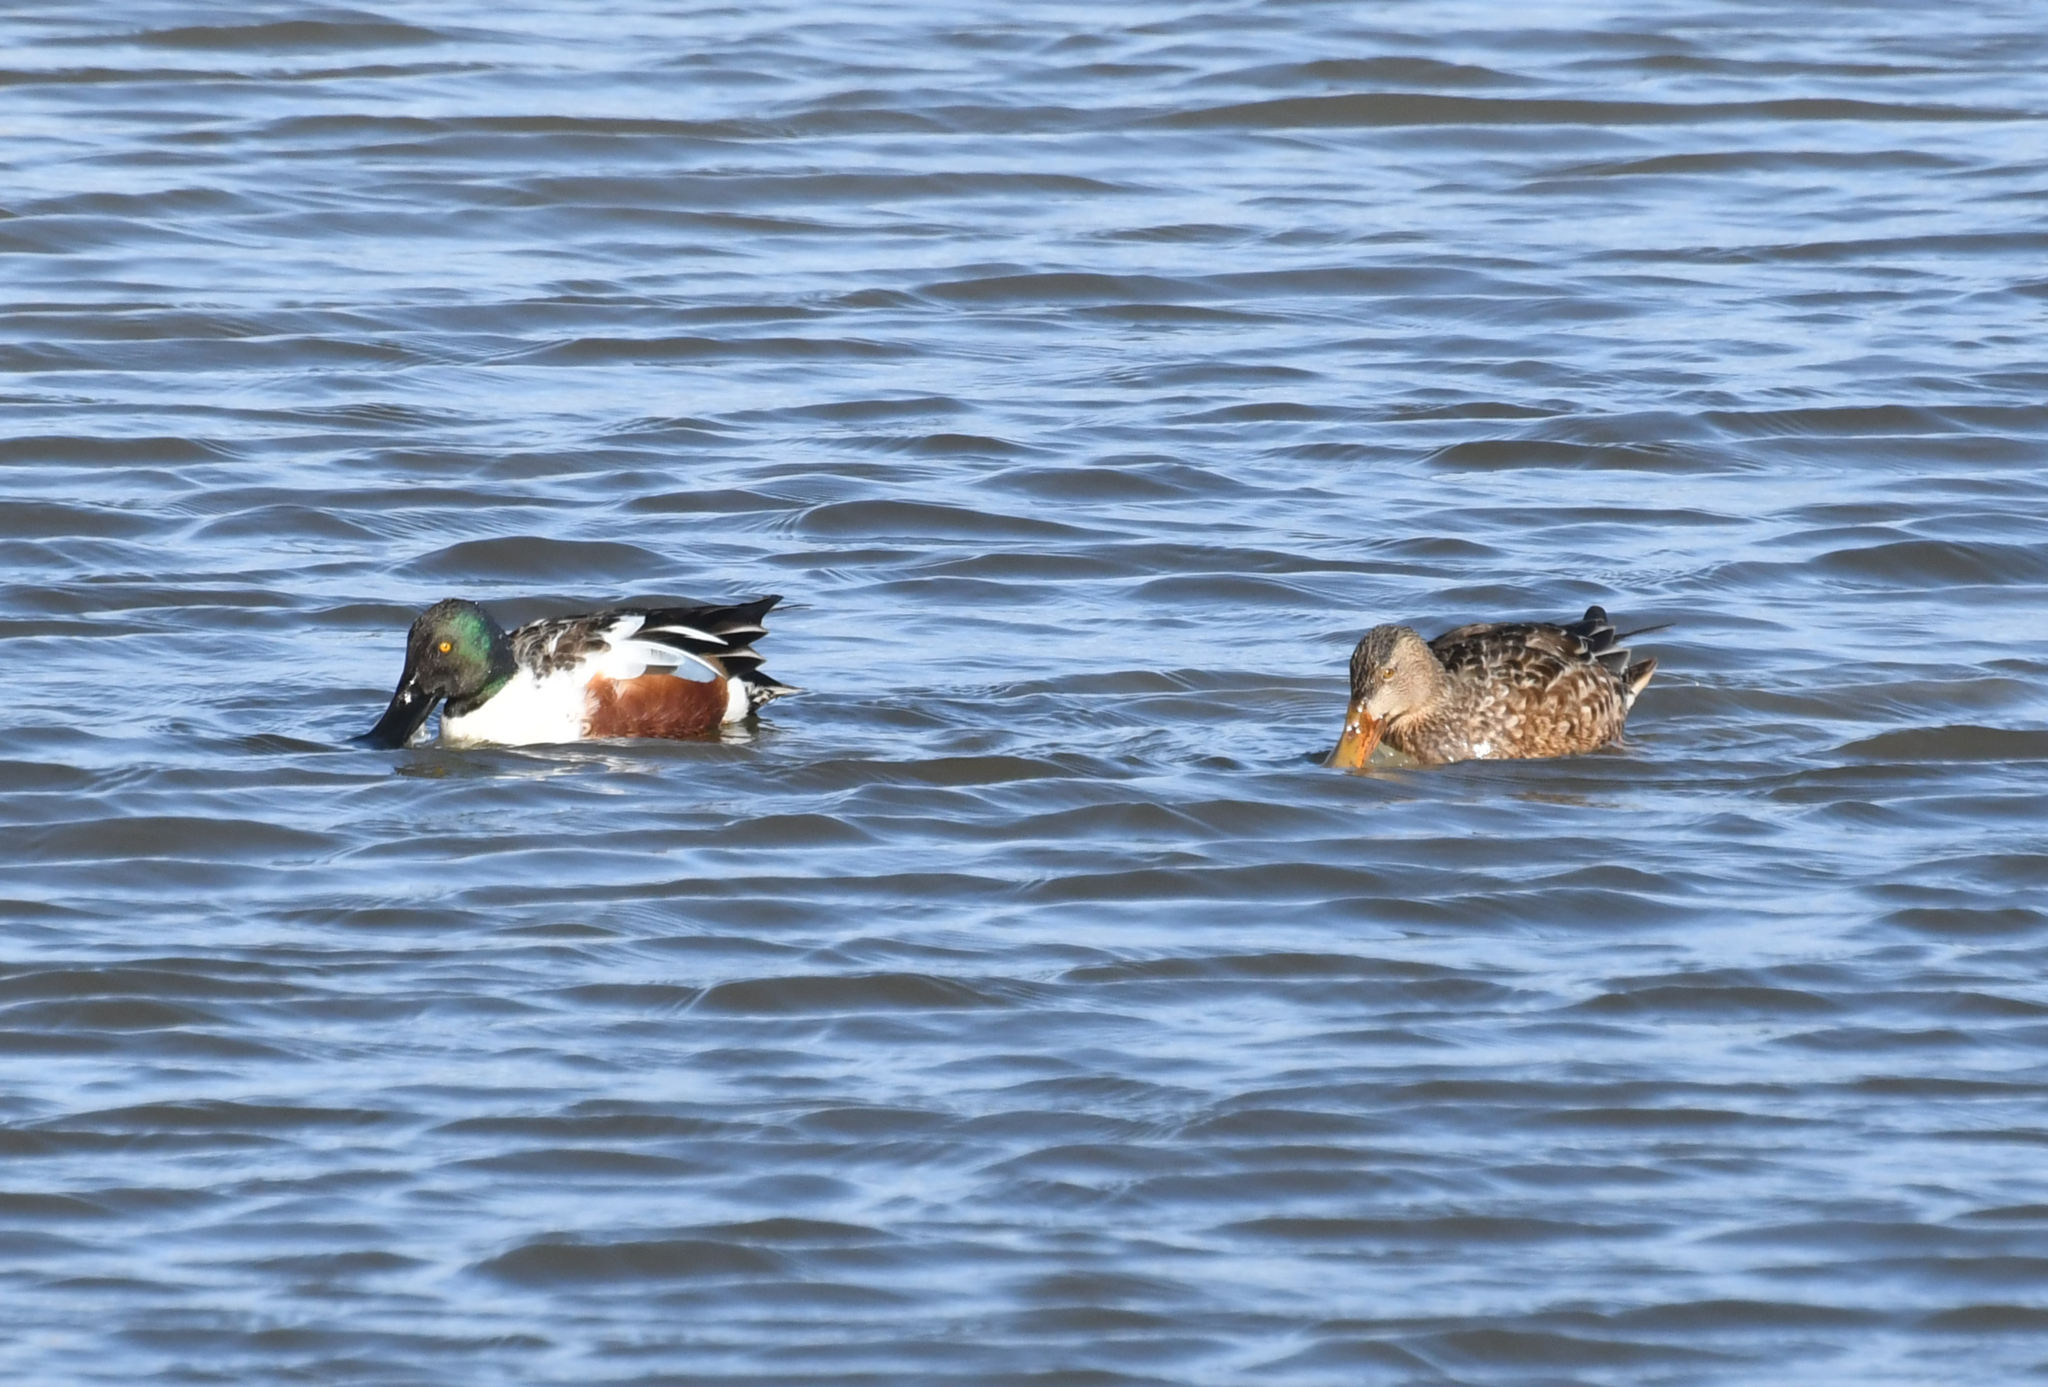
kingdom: Animalia
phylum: Chordata
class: Aves
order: Anseriformes
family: Anatidae
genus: Spatula
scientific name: Spatula clypeata
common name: Northern shoveler
